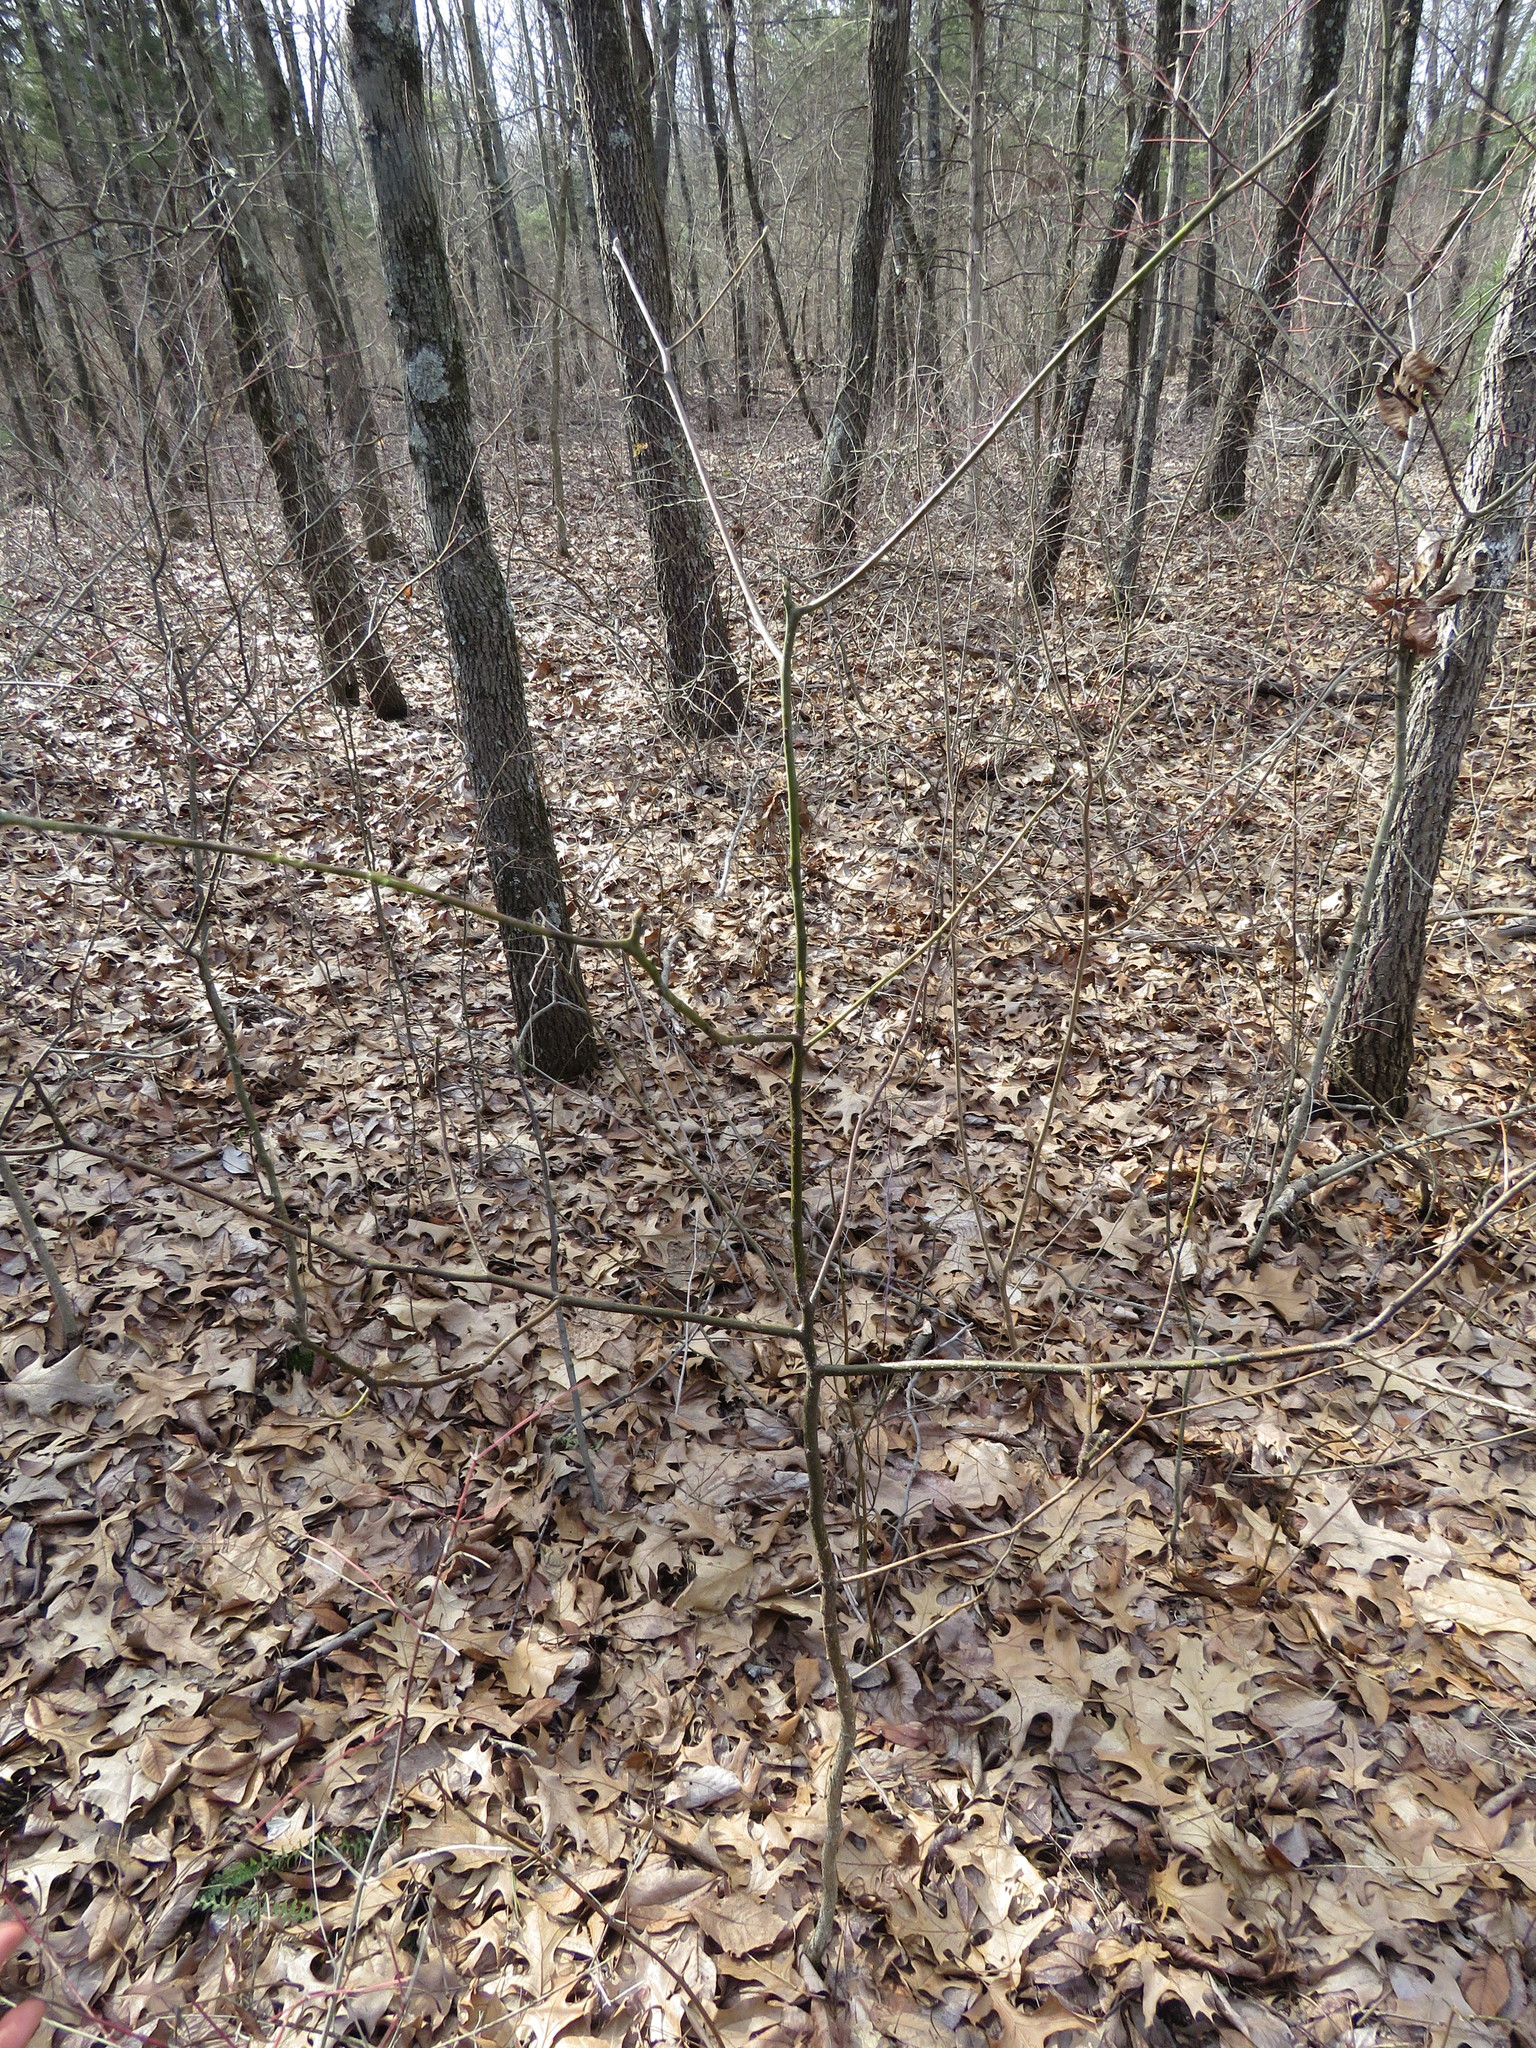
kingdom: Plantae
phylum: Tracheophyta
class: Magnoliopsida
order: Laurales
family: Lauraceae
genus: Sassafras
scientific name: Sassafras albidum
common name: Sassafras
